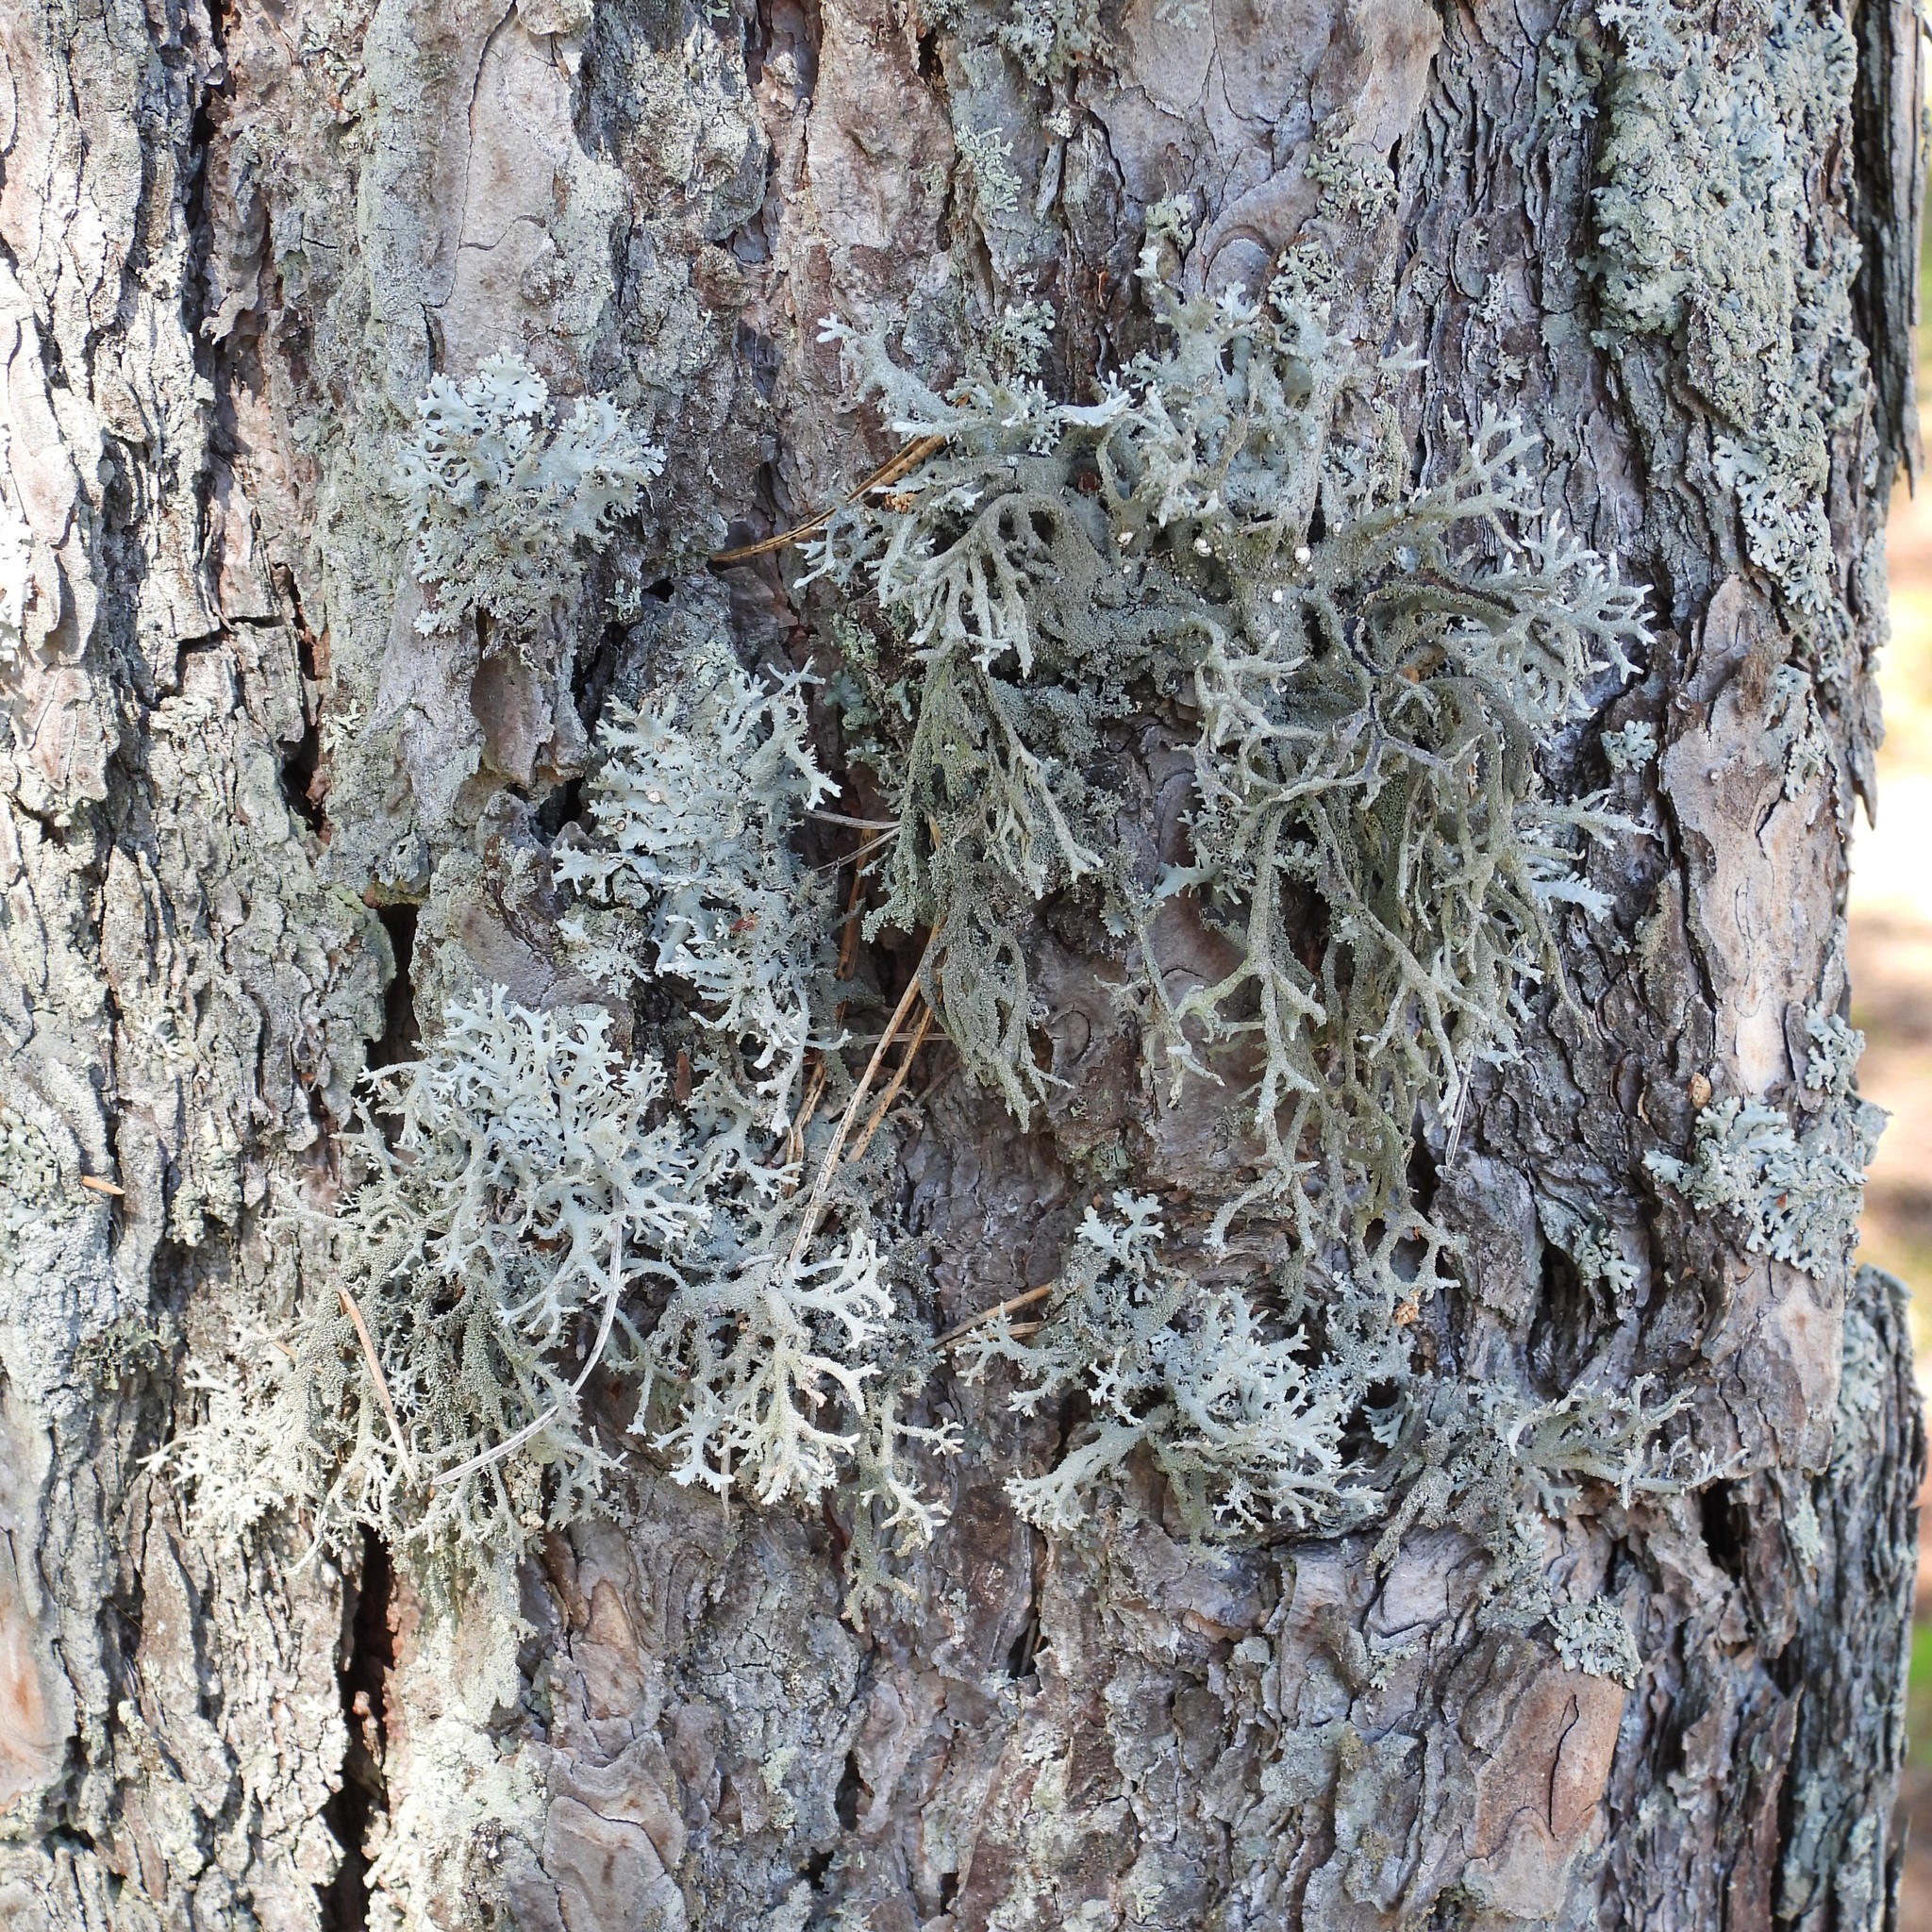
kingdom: Fungi
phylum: Ascomycota
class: Lecanoromycetes
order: Lecanorales
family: Parmeliaceae
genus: Pseudevernia
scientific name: Pseudevernia furfuracea
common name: Tree moss
